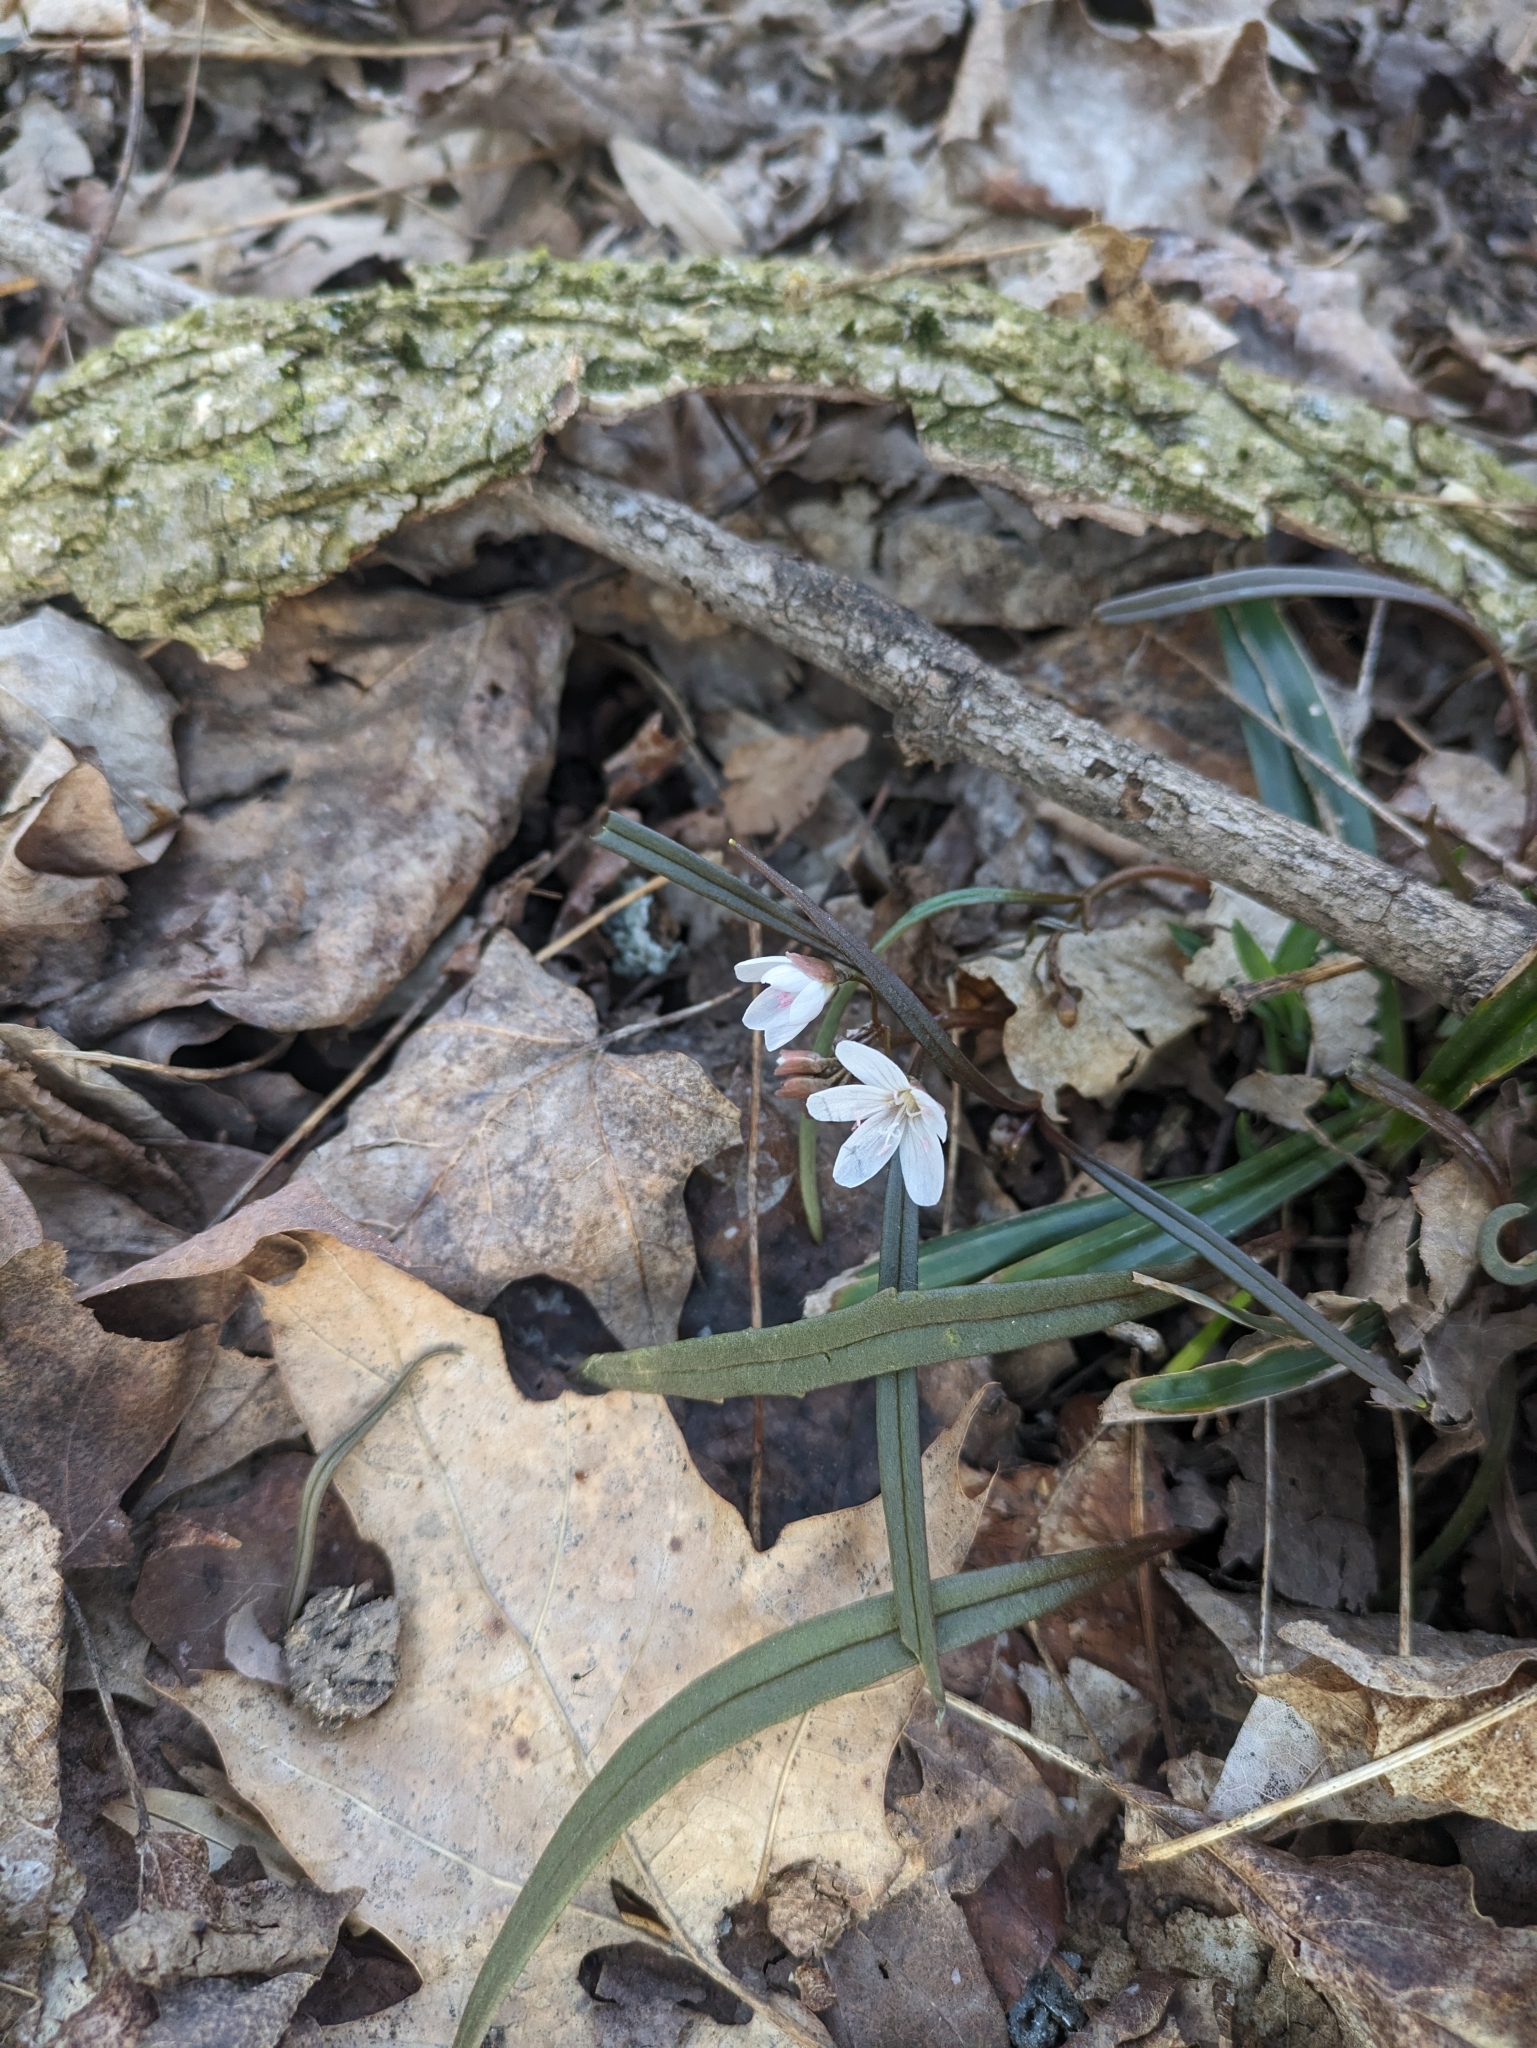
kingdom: Plantae
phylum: Tracheophyta
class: Magnoliopsida
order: Caryophyllales
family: Montiaceae
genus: Claytonia
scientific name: Claytonia virginica
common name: Virginia springbeauty
